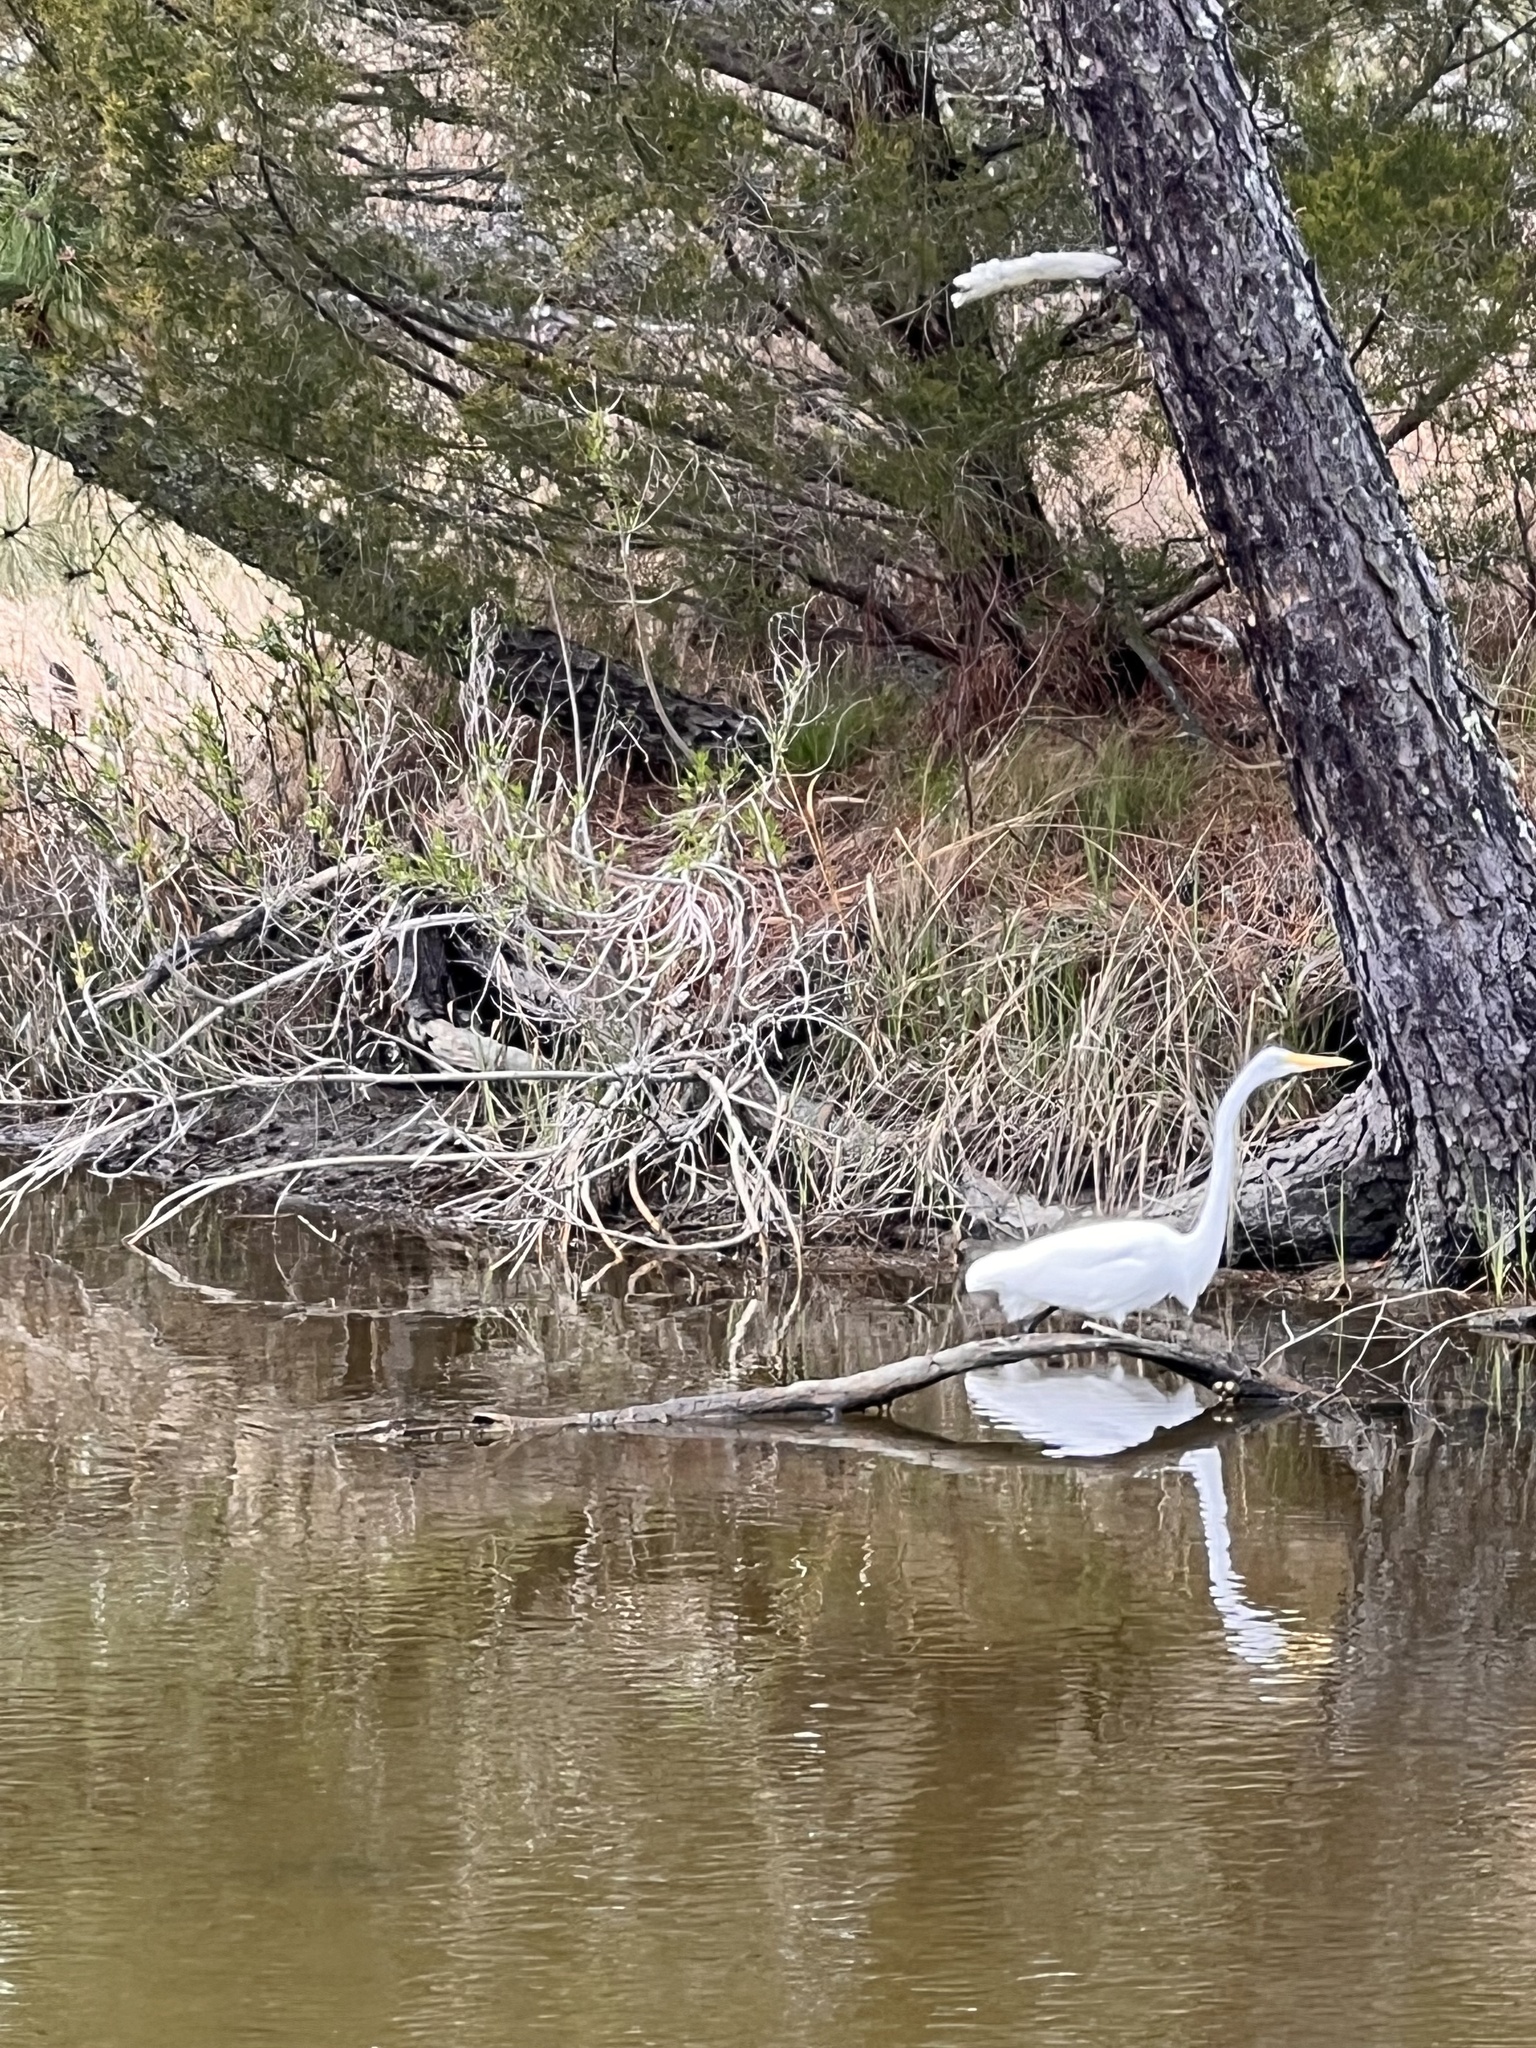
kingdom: Animalia
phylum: Chordata
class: Aves
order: Pelecaniformes
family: Ardeidae
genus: Ardea
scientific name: Ardea alba
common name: Great egret
